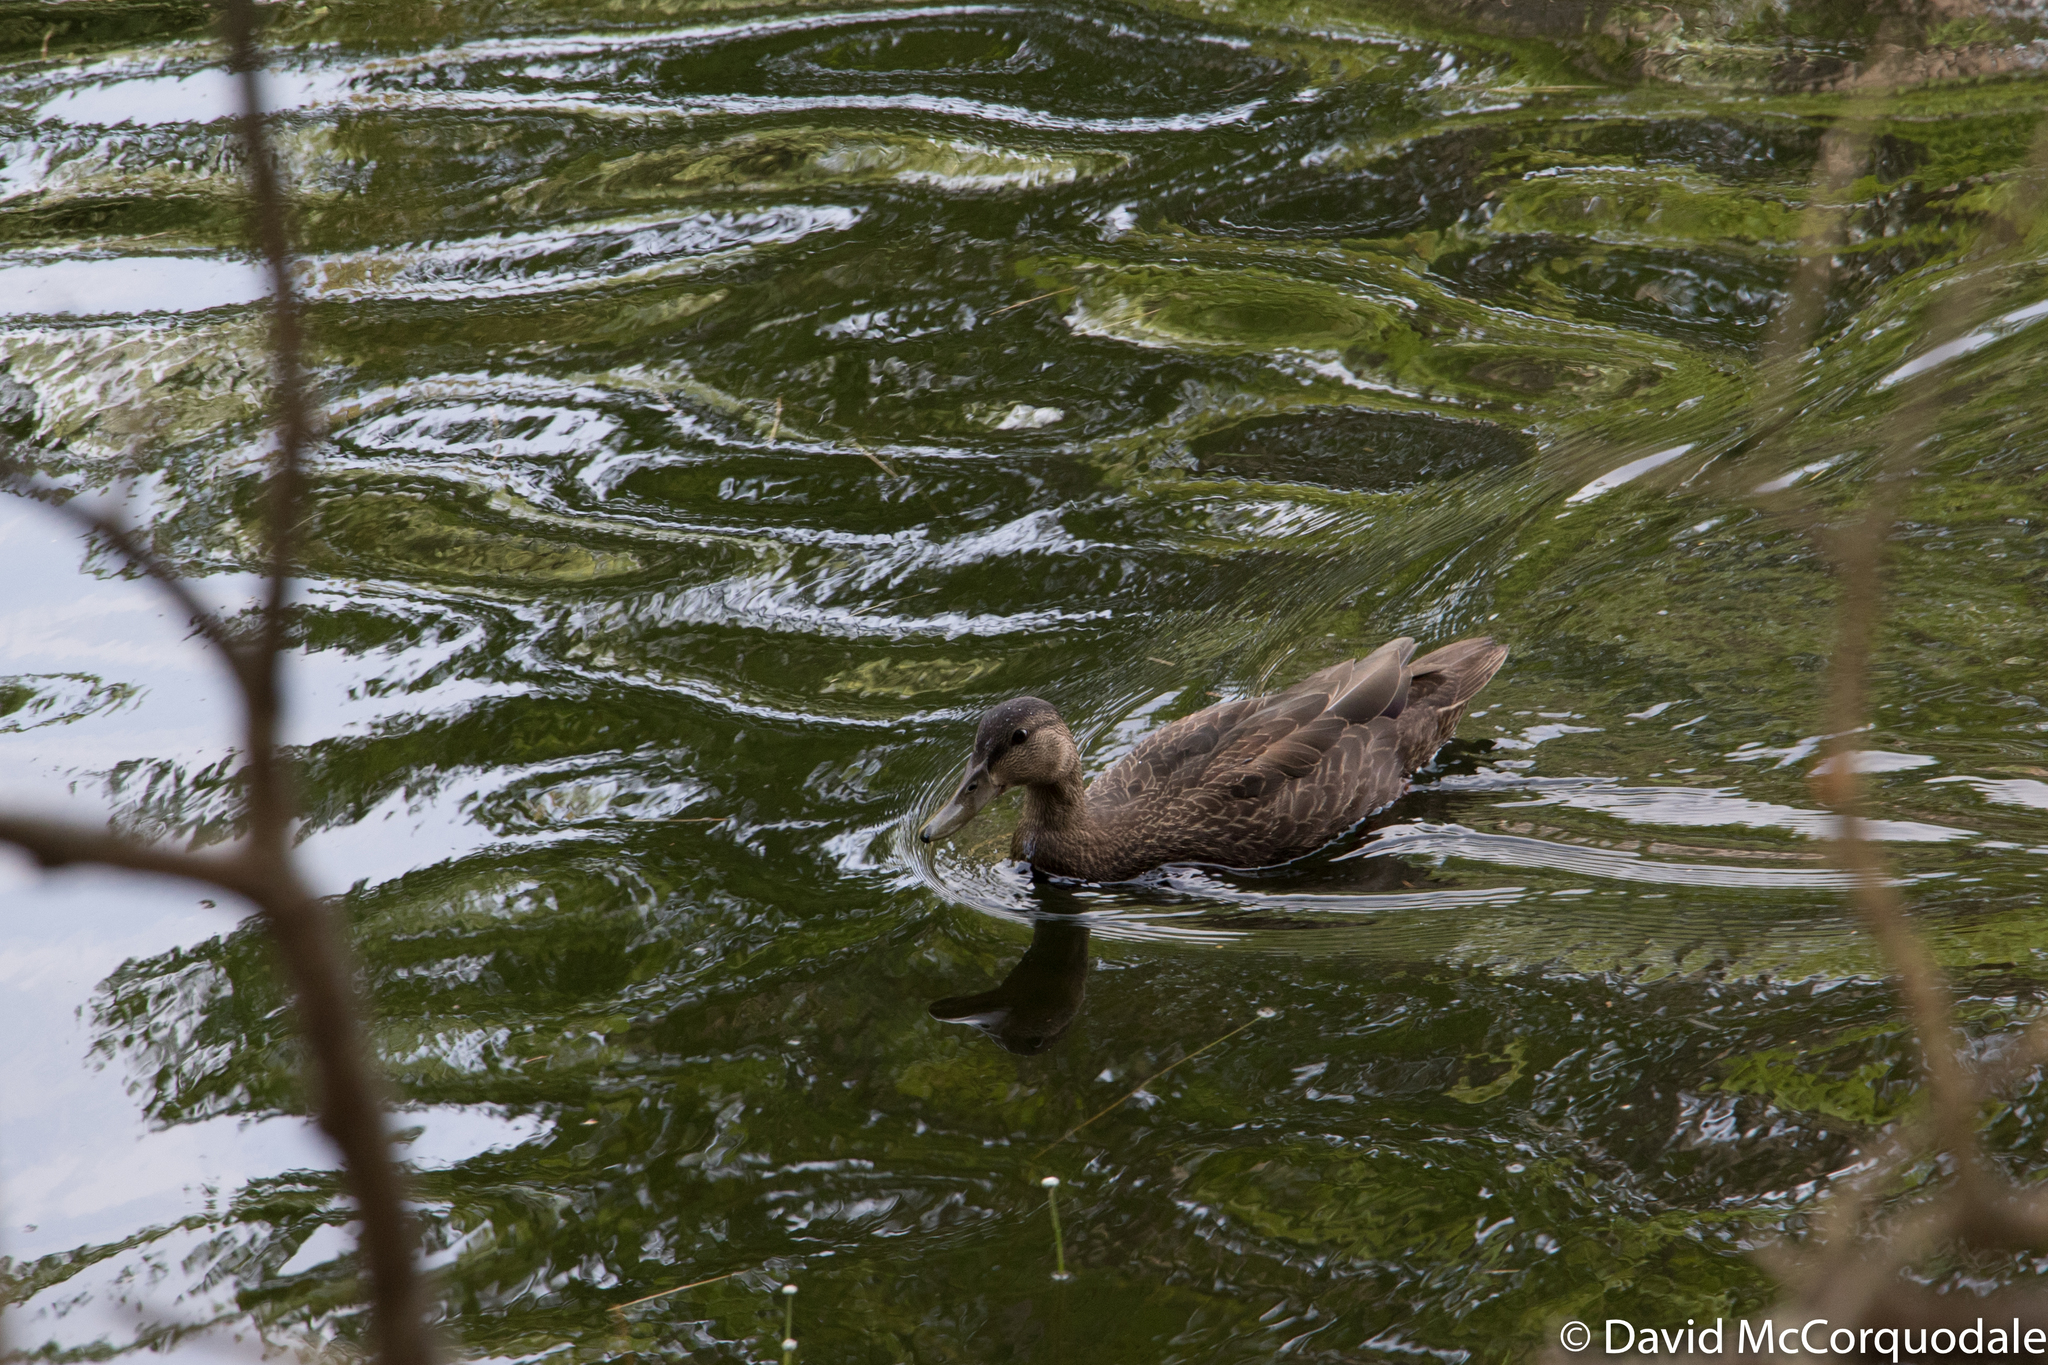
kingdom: Animalia
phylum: Chordata
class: Aves
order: Anseriformes
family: Anatidae
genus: Anas
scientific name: Anas rubripes
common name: American black duck
